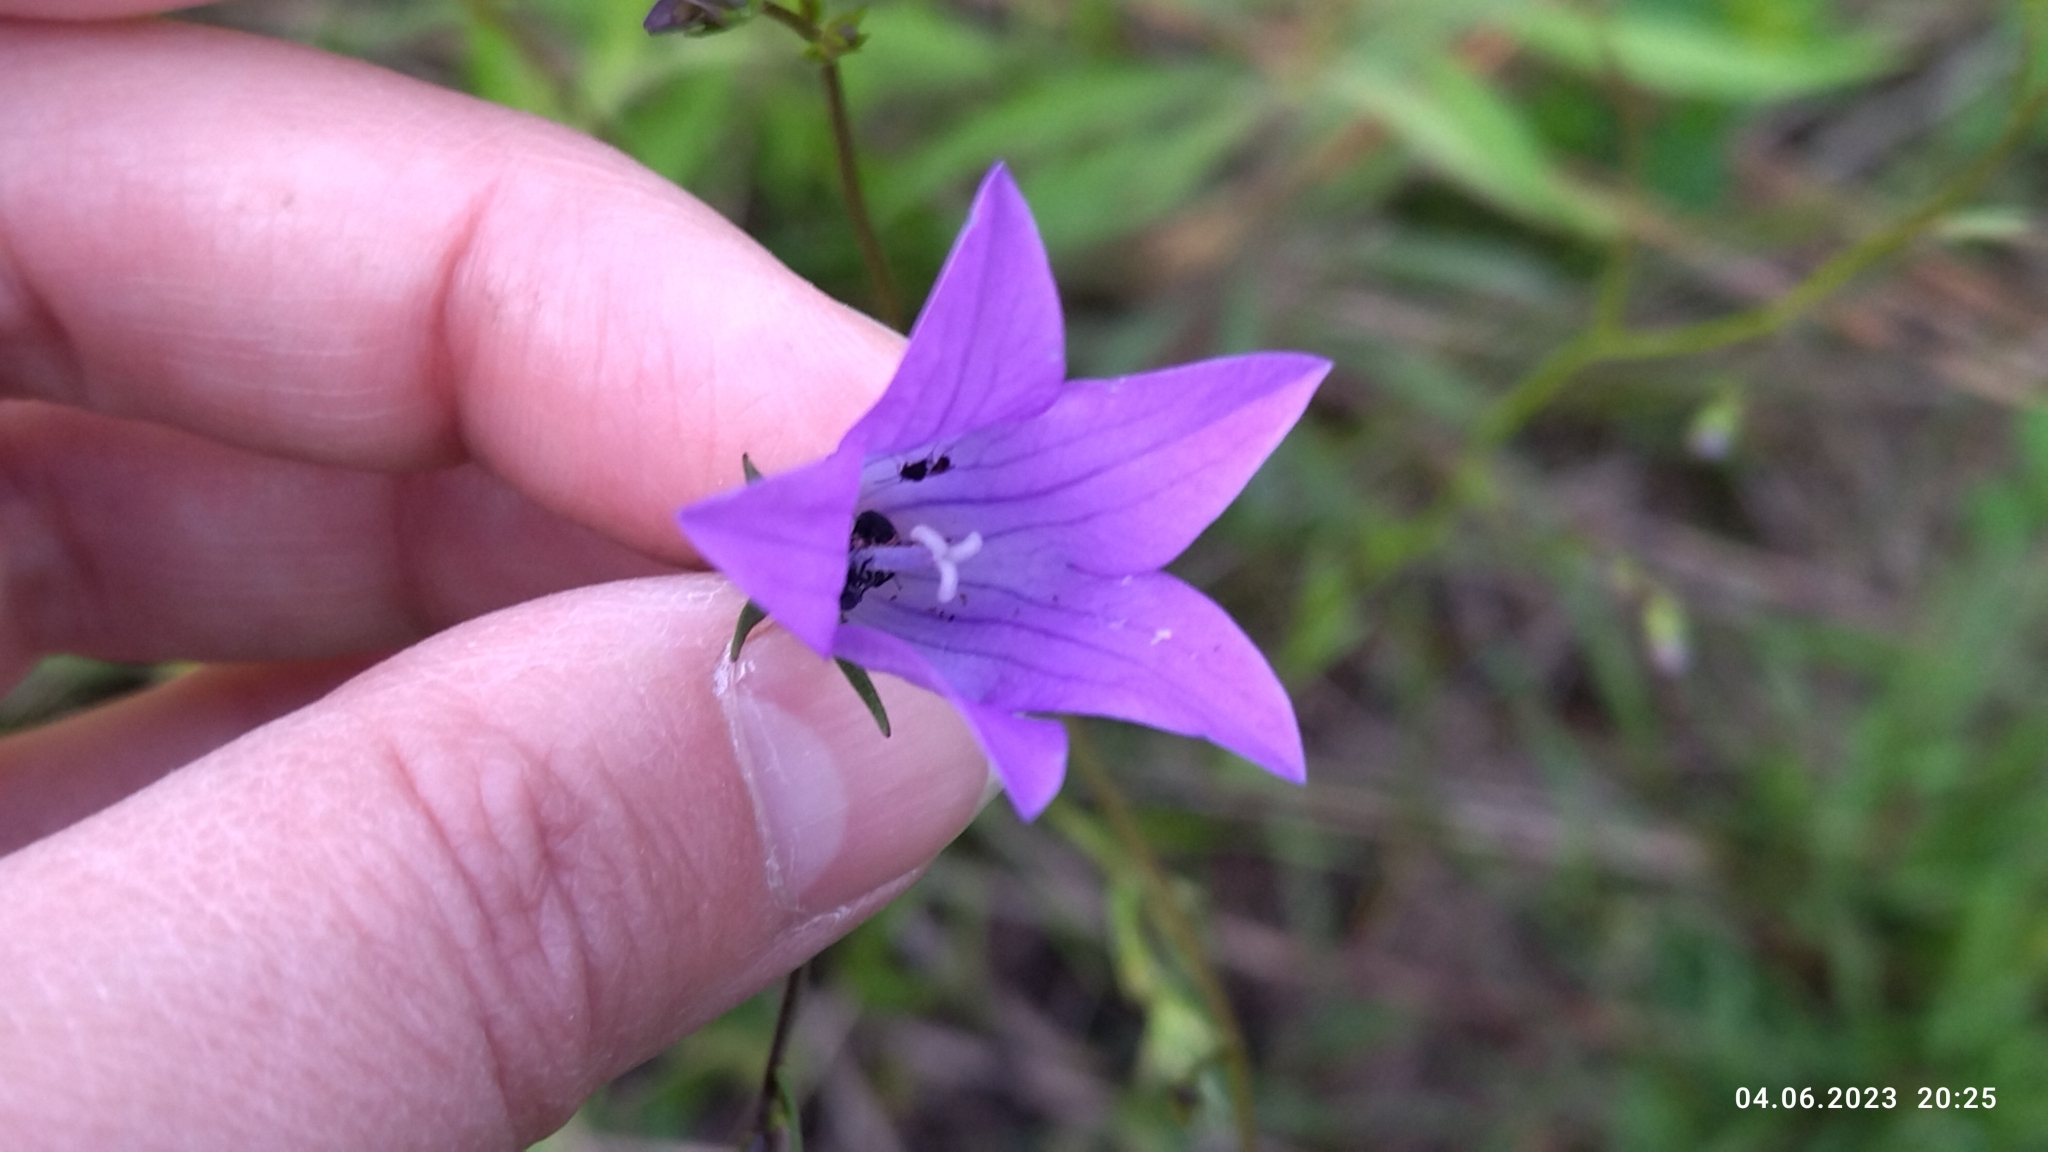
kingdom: Plantae
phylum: Tracheophyta
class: Magnoliopsida
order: Asterales
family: Campanulaceae
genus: Campanula
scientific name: Campanula patula
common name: Spreading bellflower
